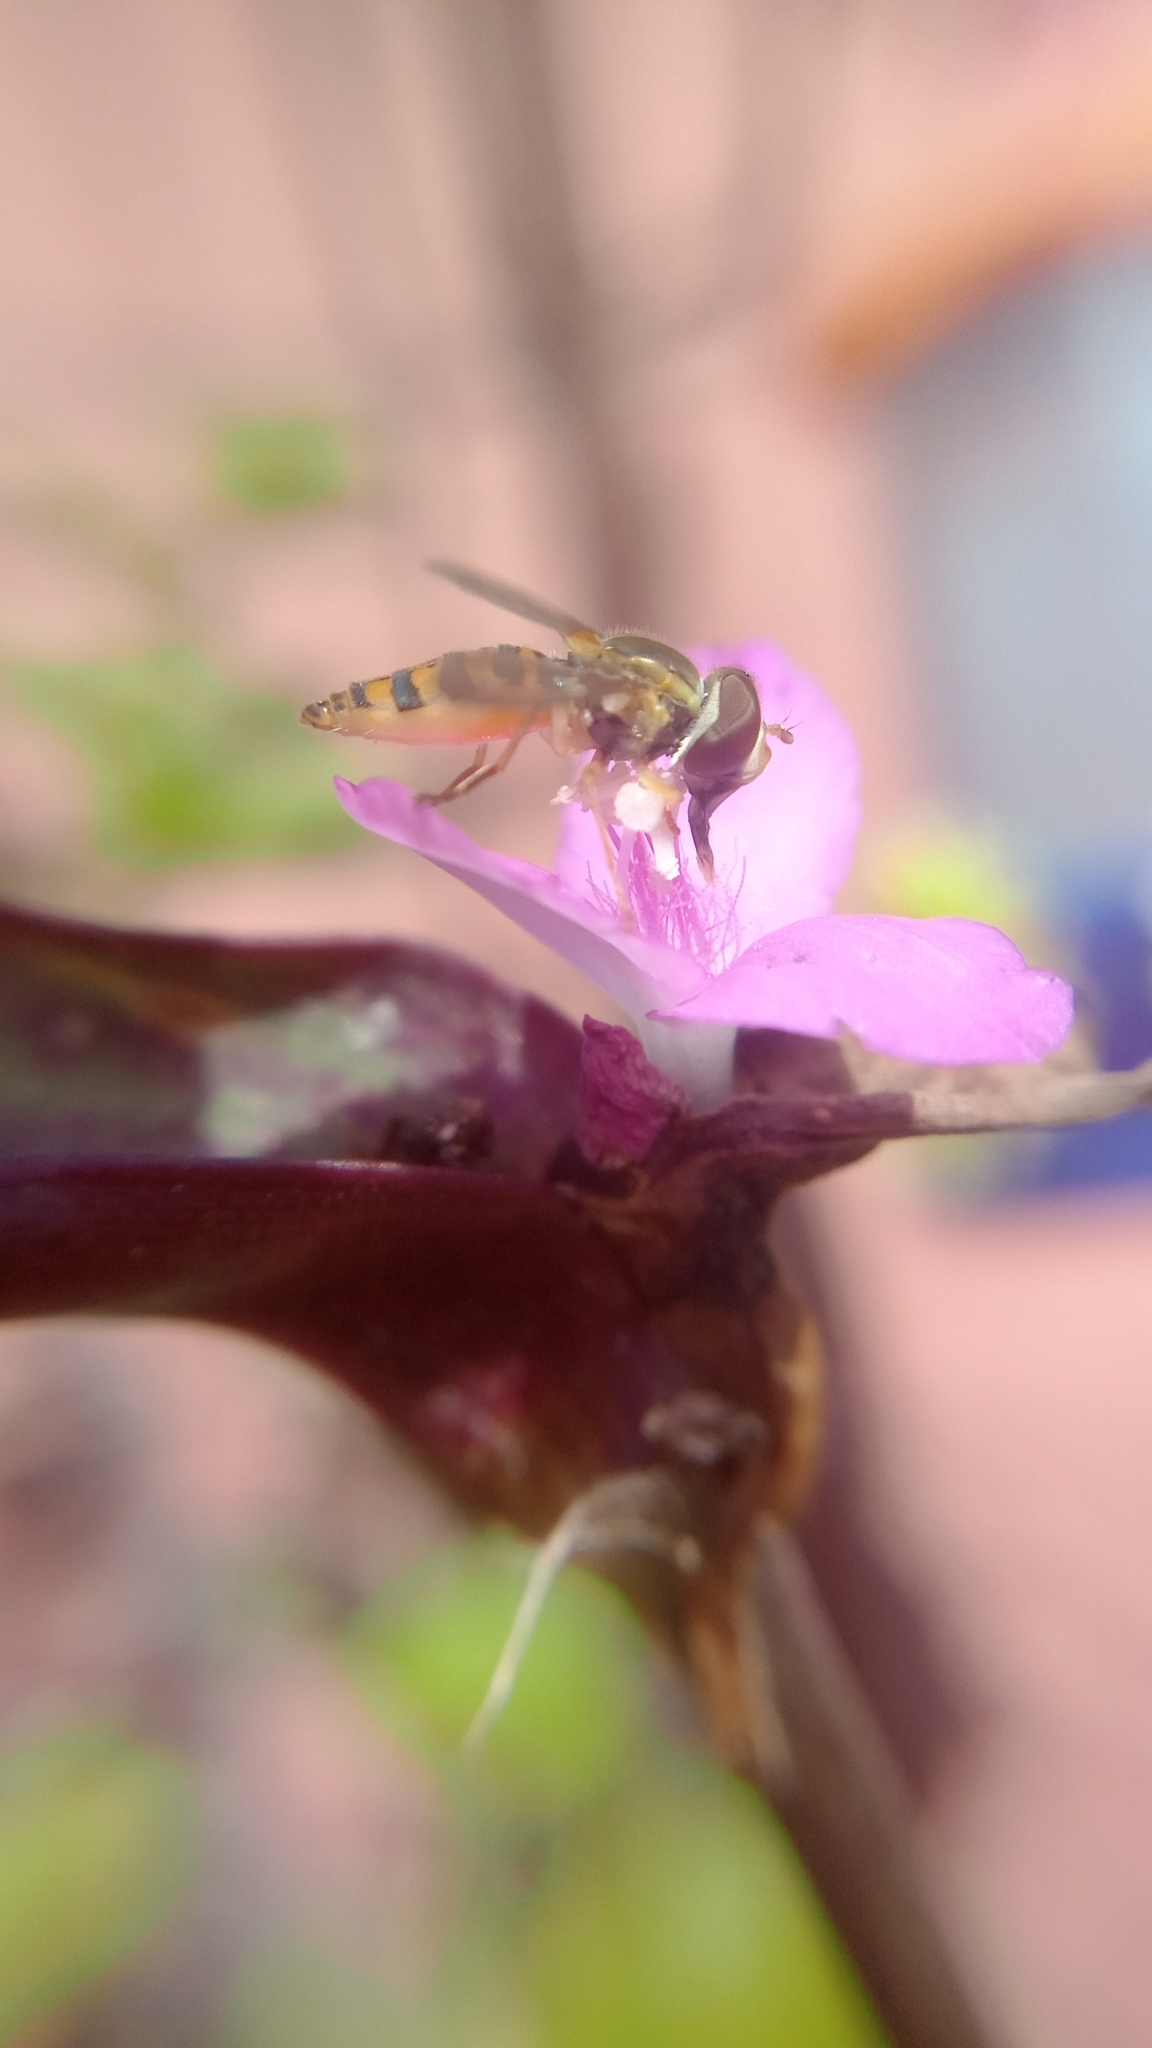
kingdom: Animalia
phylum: Arthropoda
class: Insecta
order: Diptera
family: Syrphidae
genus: Toxomerus
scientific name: Toxomerus
